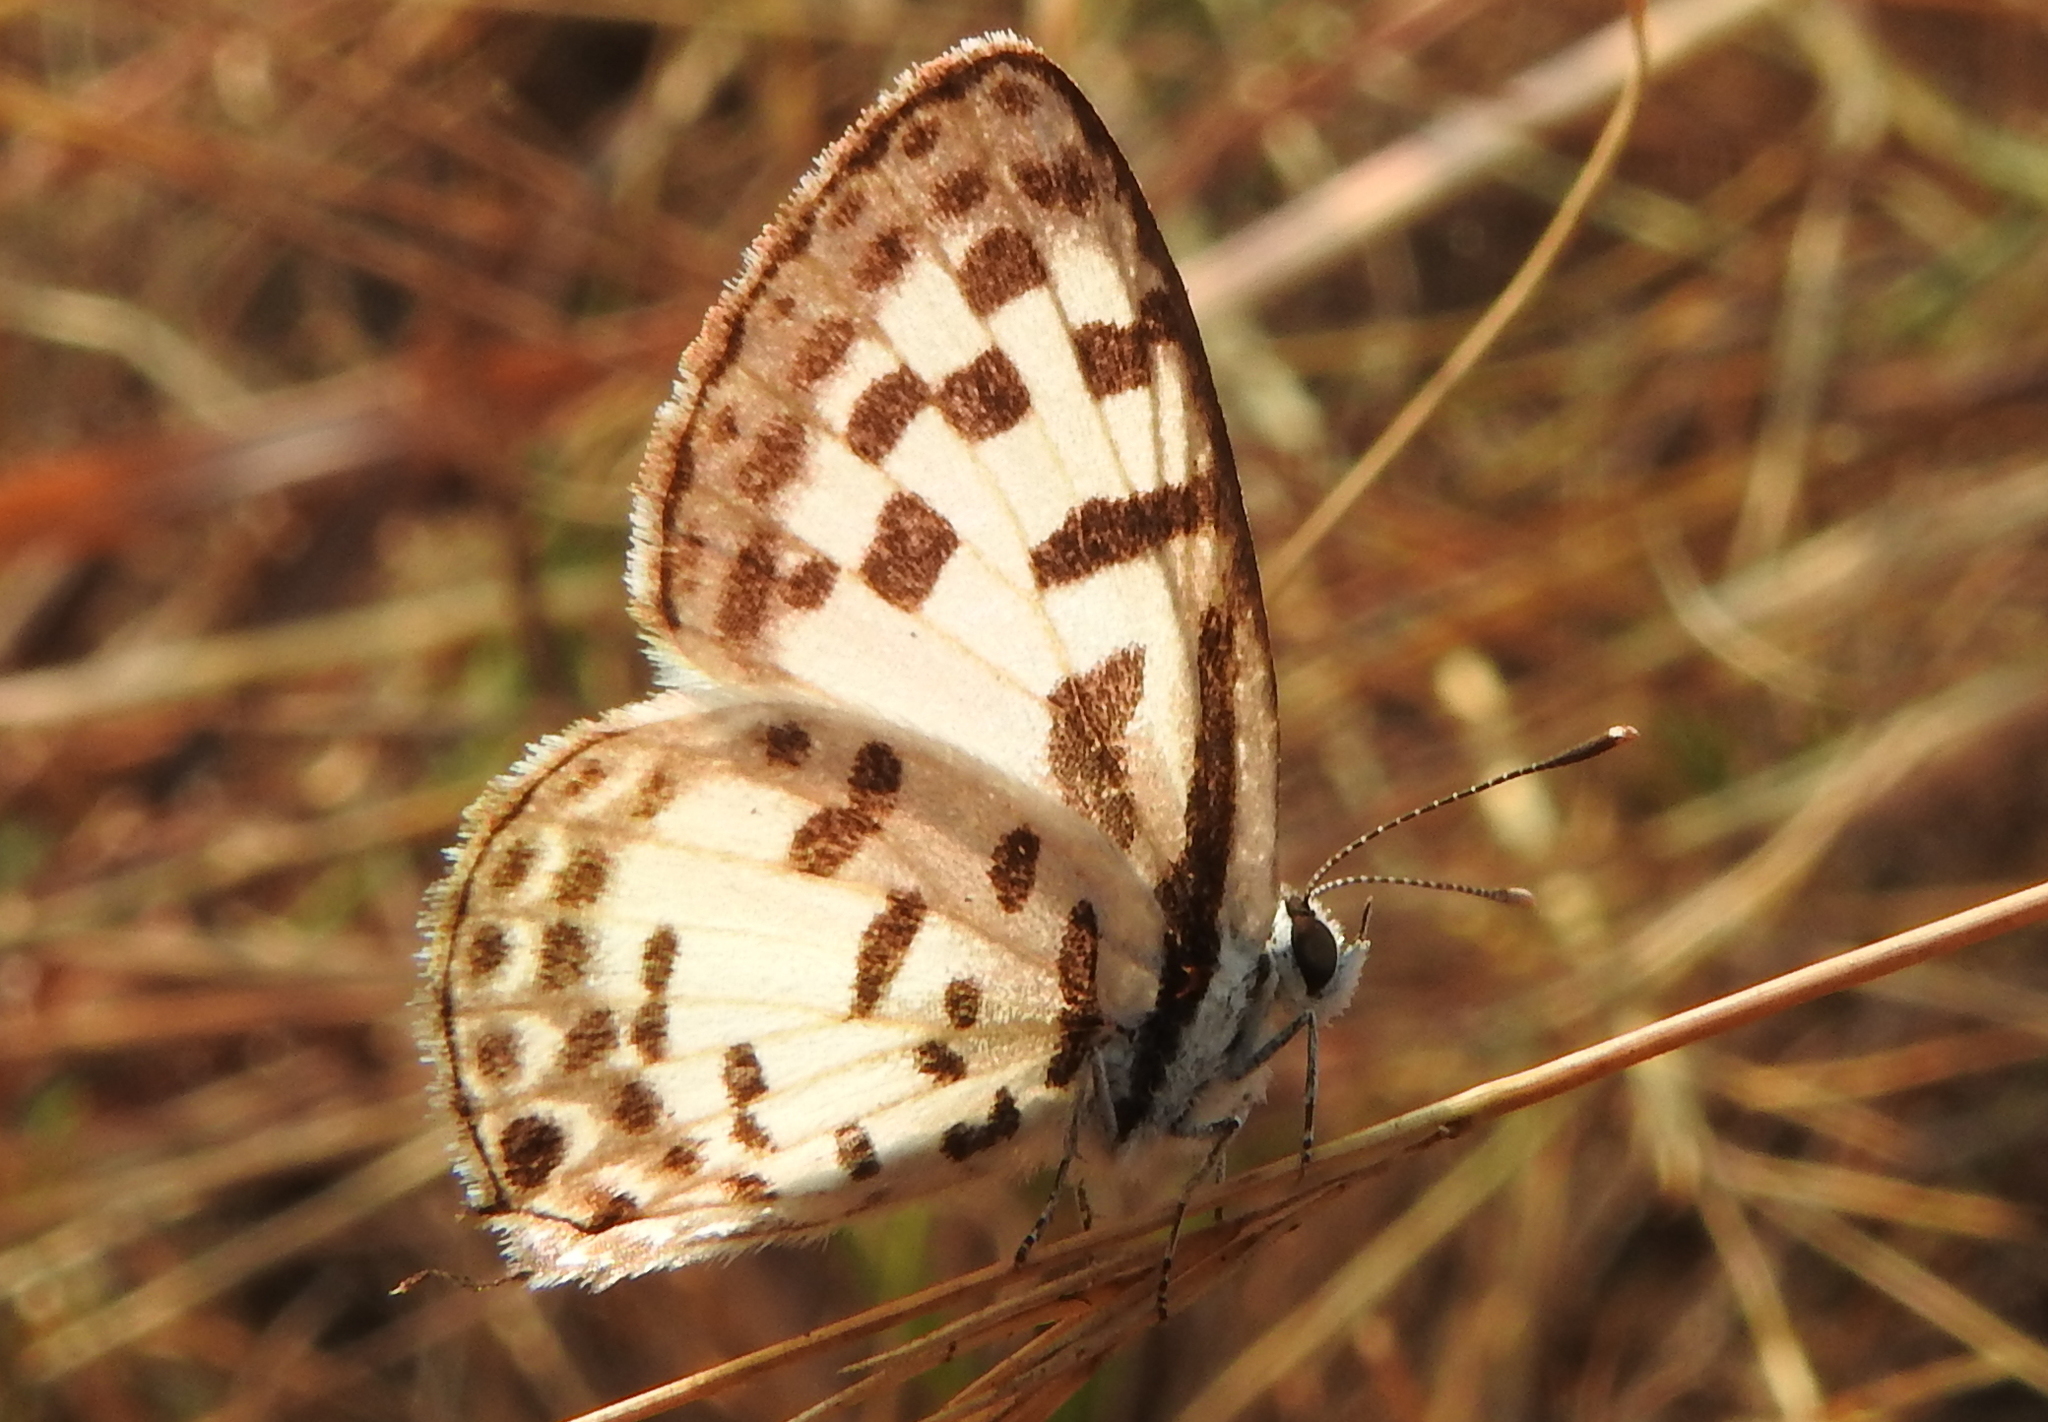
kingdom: Animalia
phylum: Arthropoda
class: Insecta
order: Lepidoptera
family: Lycaenidae
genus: Castalius
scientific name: Castalius rosimon
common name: Common pierrot
